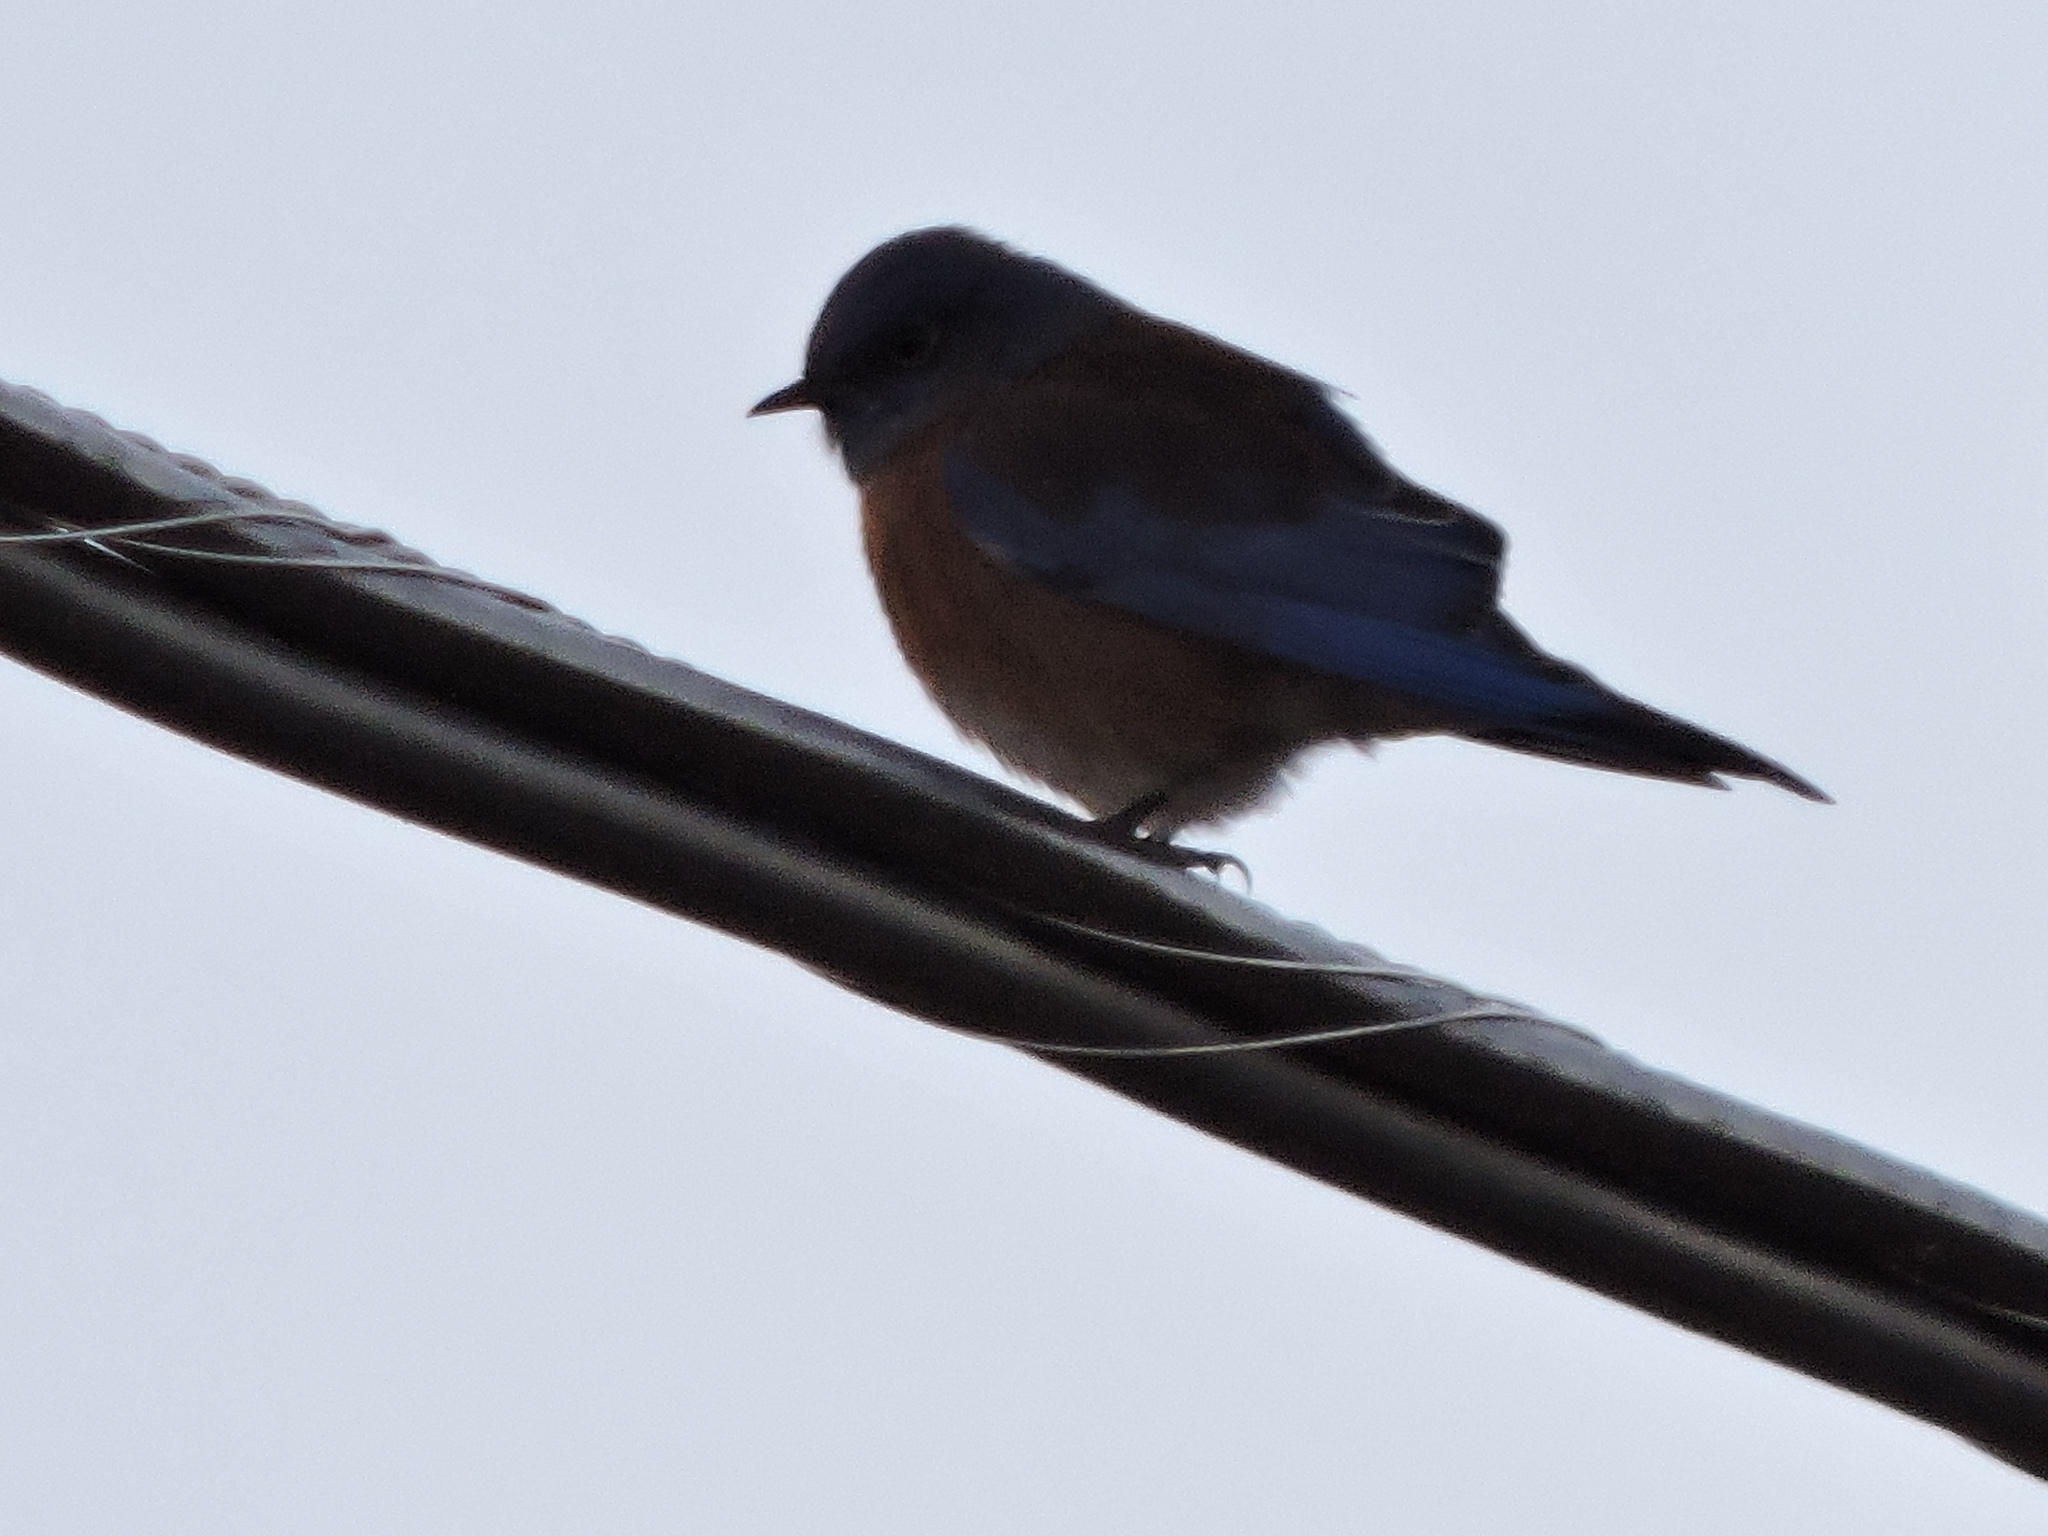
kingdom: Animalia
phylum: Chordata
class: Aves
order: Passeriformes
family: Turdidae
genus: Sialia
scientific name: Sialia mexicana
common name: Western bluebird
